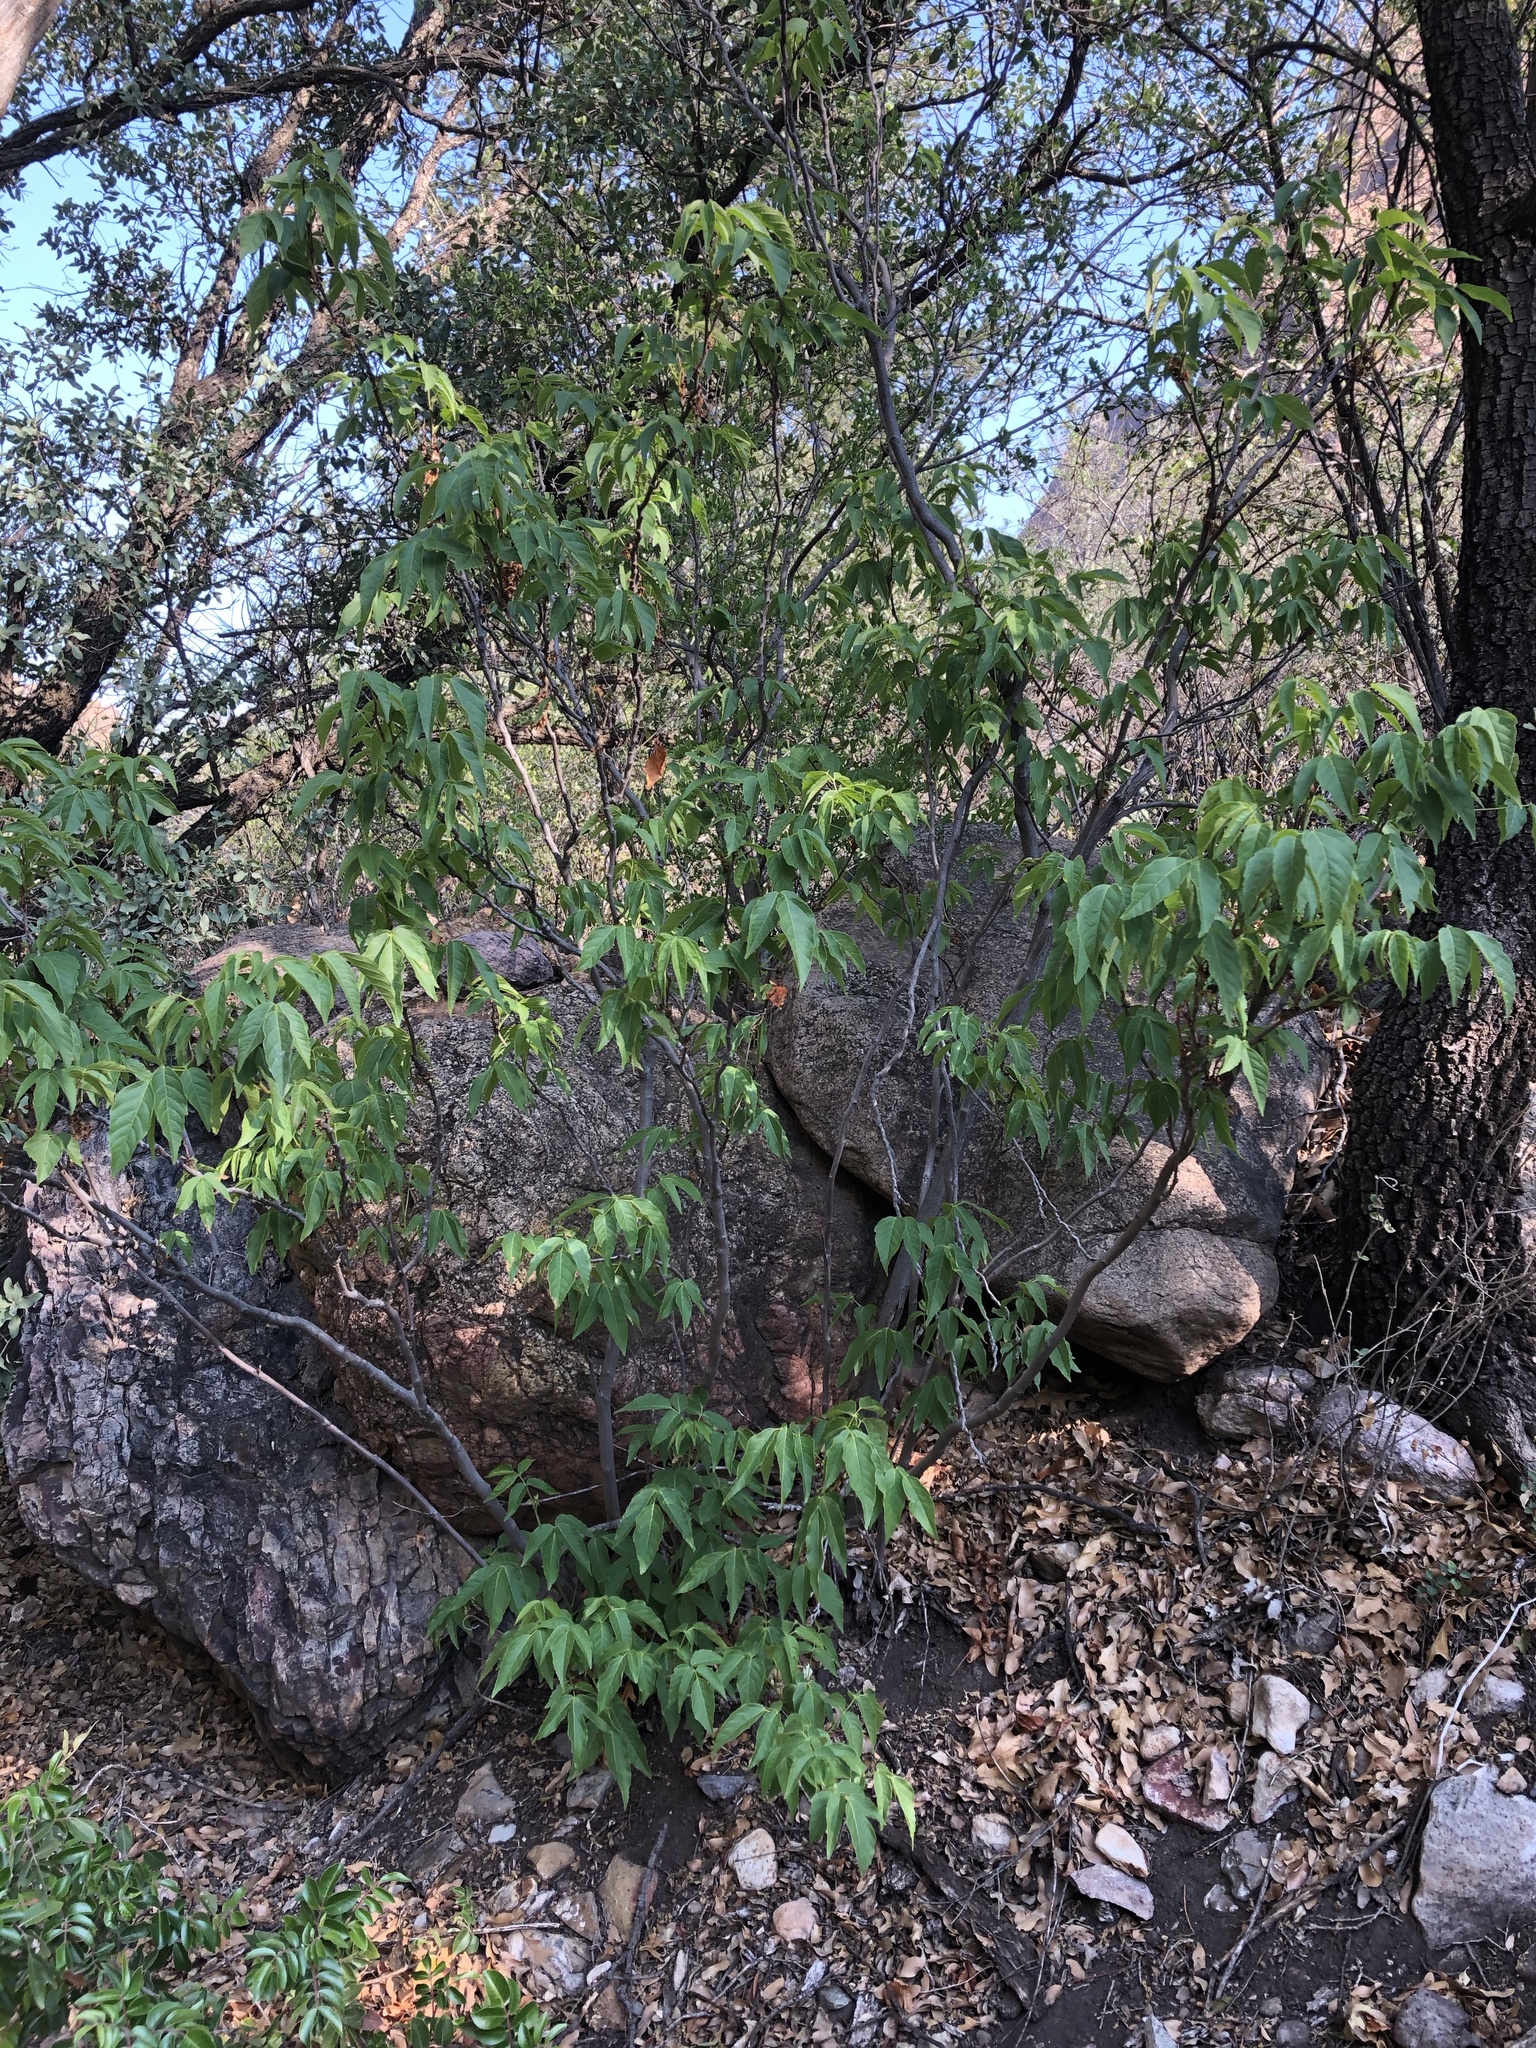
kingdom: Plantae
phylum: Tracheophyta
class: Magnoliopsida
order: Sapindales
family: Sapindaceae
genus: Ungnadia
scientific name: Ungnadia speciosa
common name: Texas-buckeye
